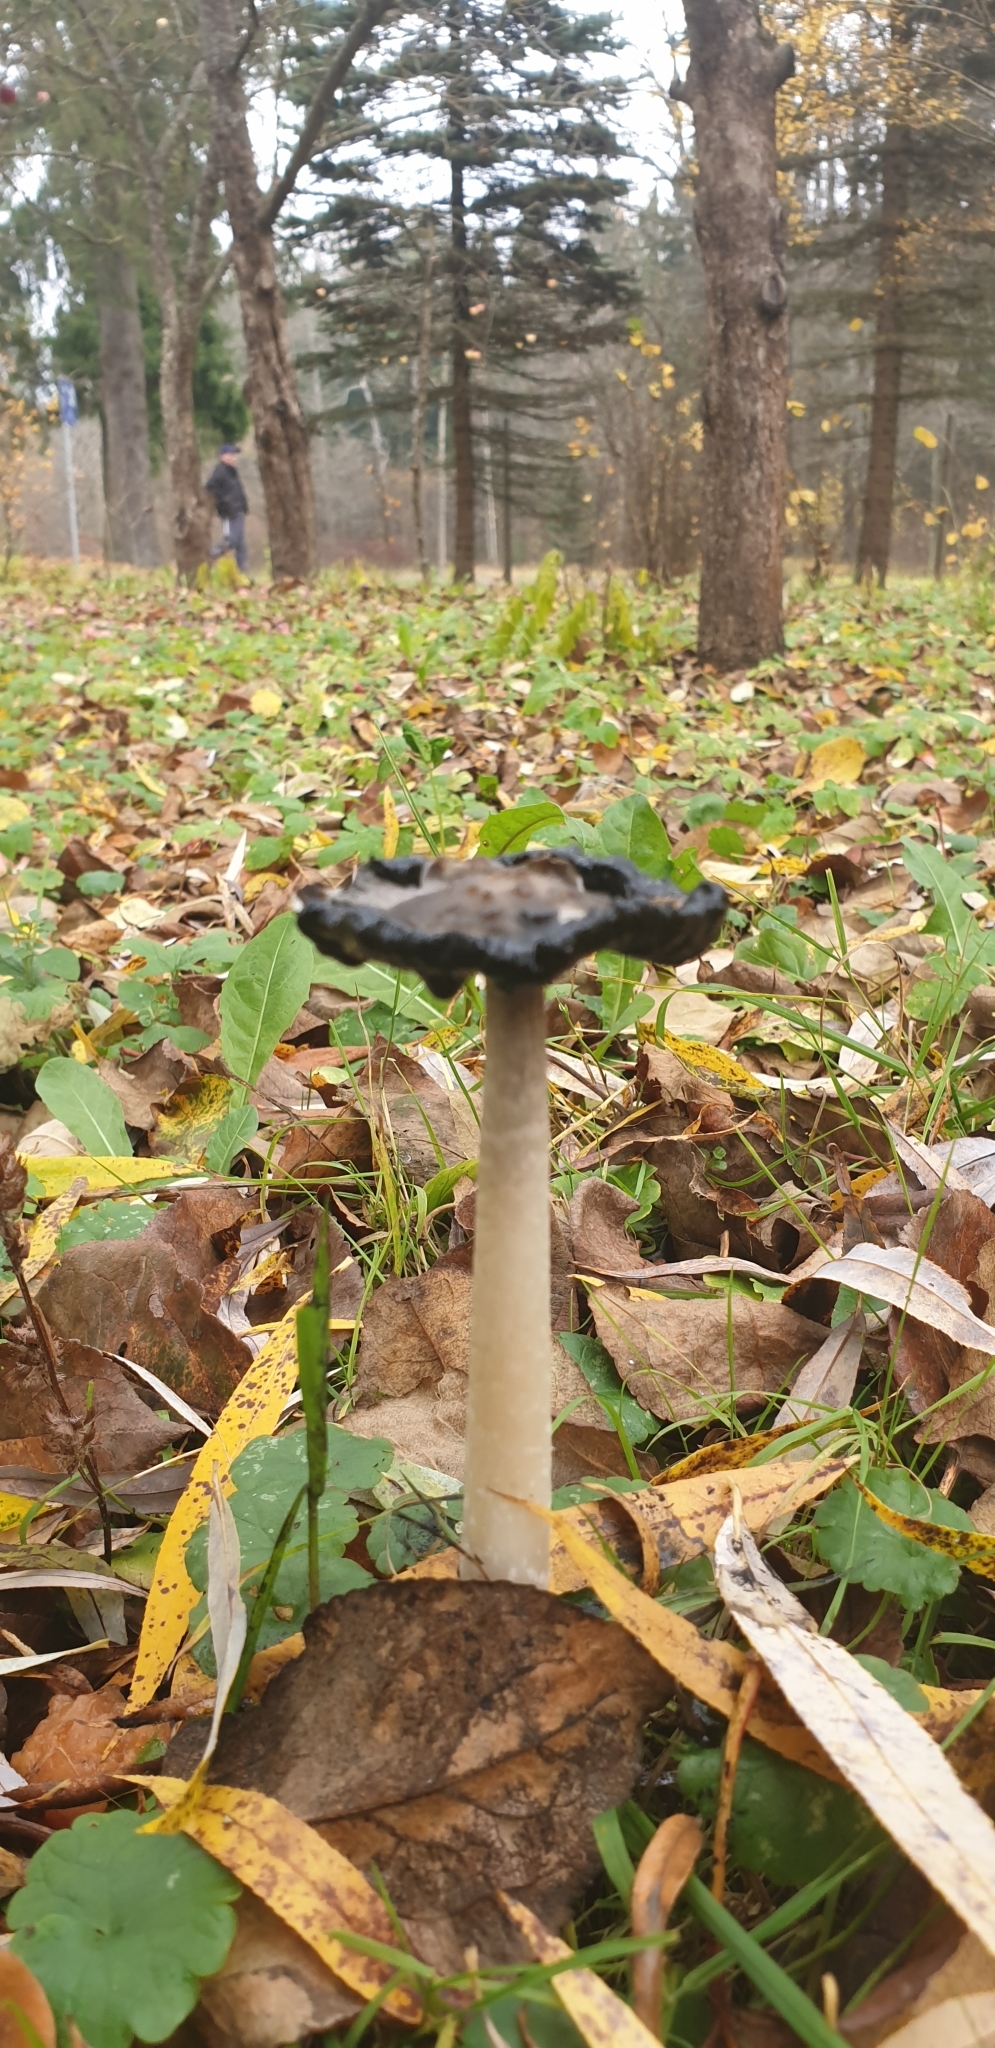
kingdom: Fungi
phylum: Basidiomycota
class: Agaricomycetes
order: Agaricales
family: Agaricaceae
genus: Coprinus
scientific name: Coprinus comatus
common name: Lawyer's wig
